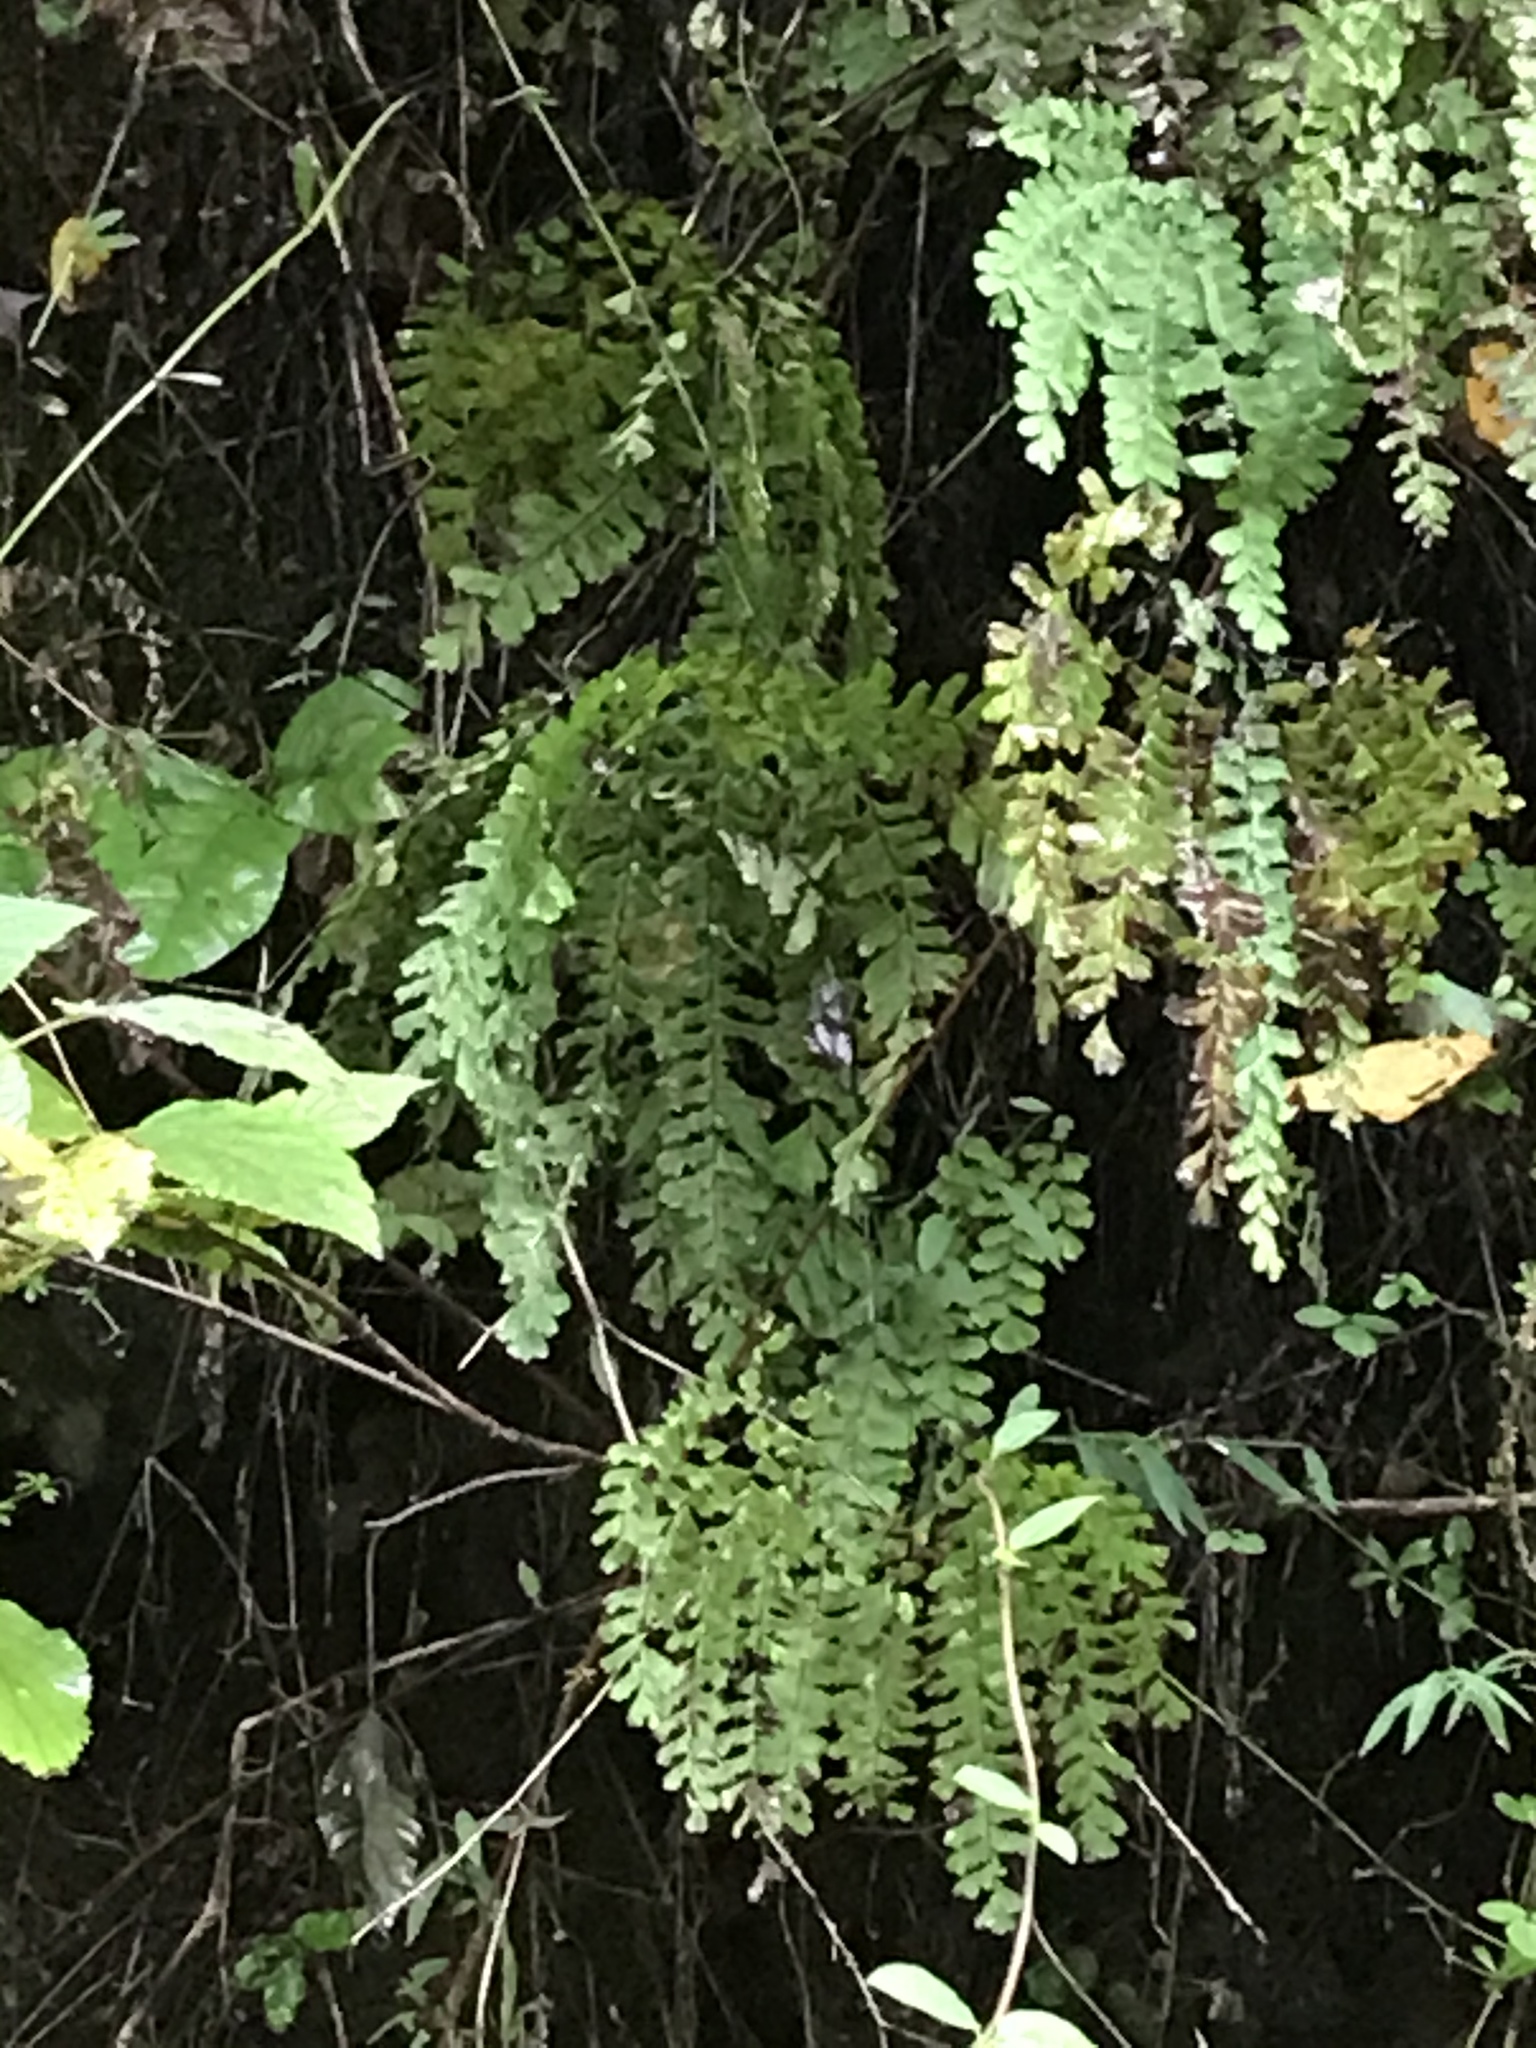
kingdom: Plantae
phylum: Tracheophyta
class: Polypodiopsida
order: Polypodiales
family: Pteridaceae
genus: Adiantum
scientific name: Adiantum pedatum
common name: Five-finger fern
